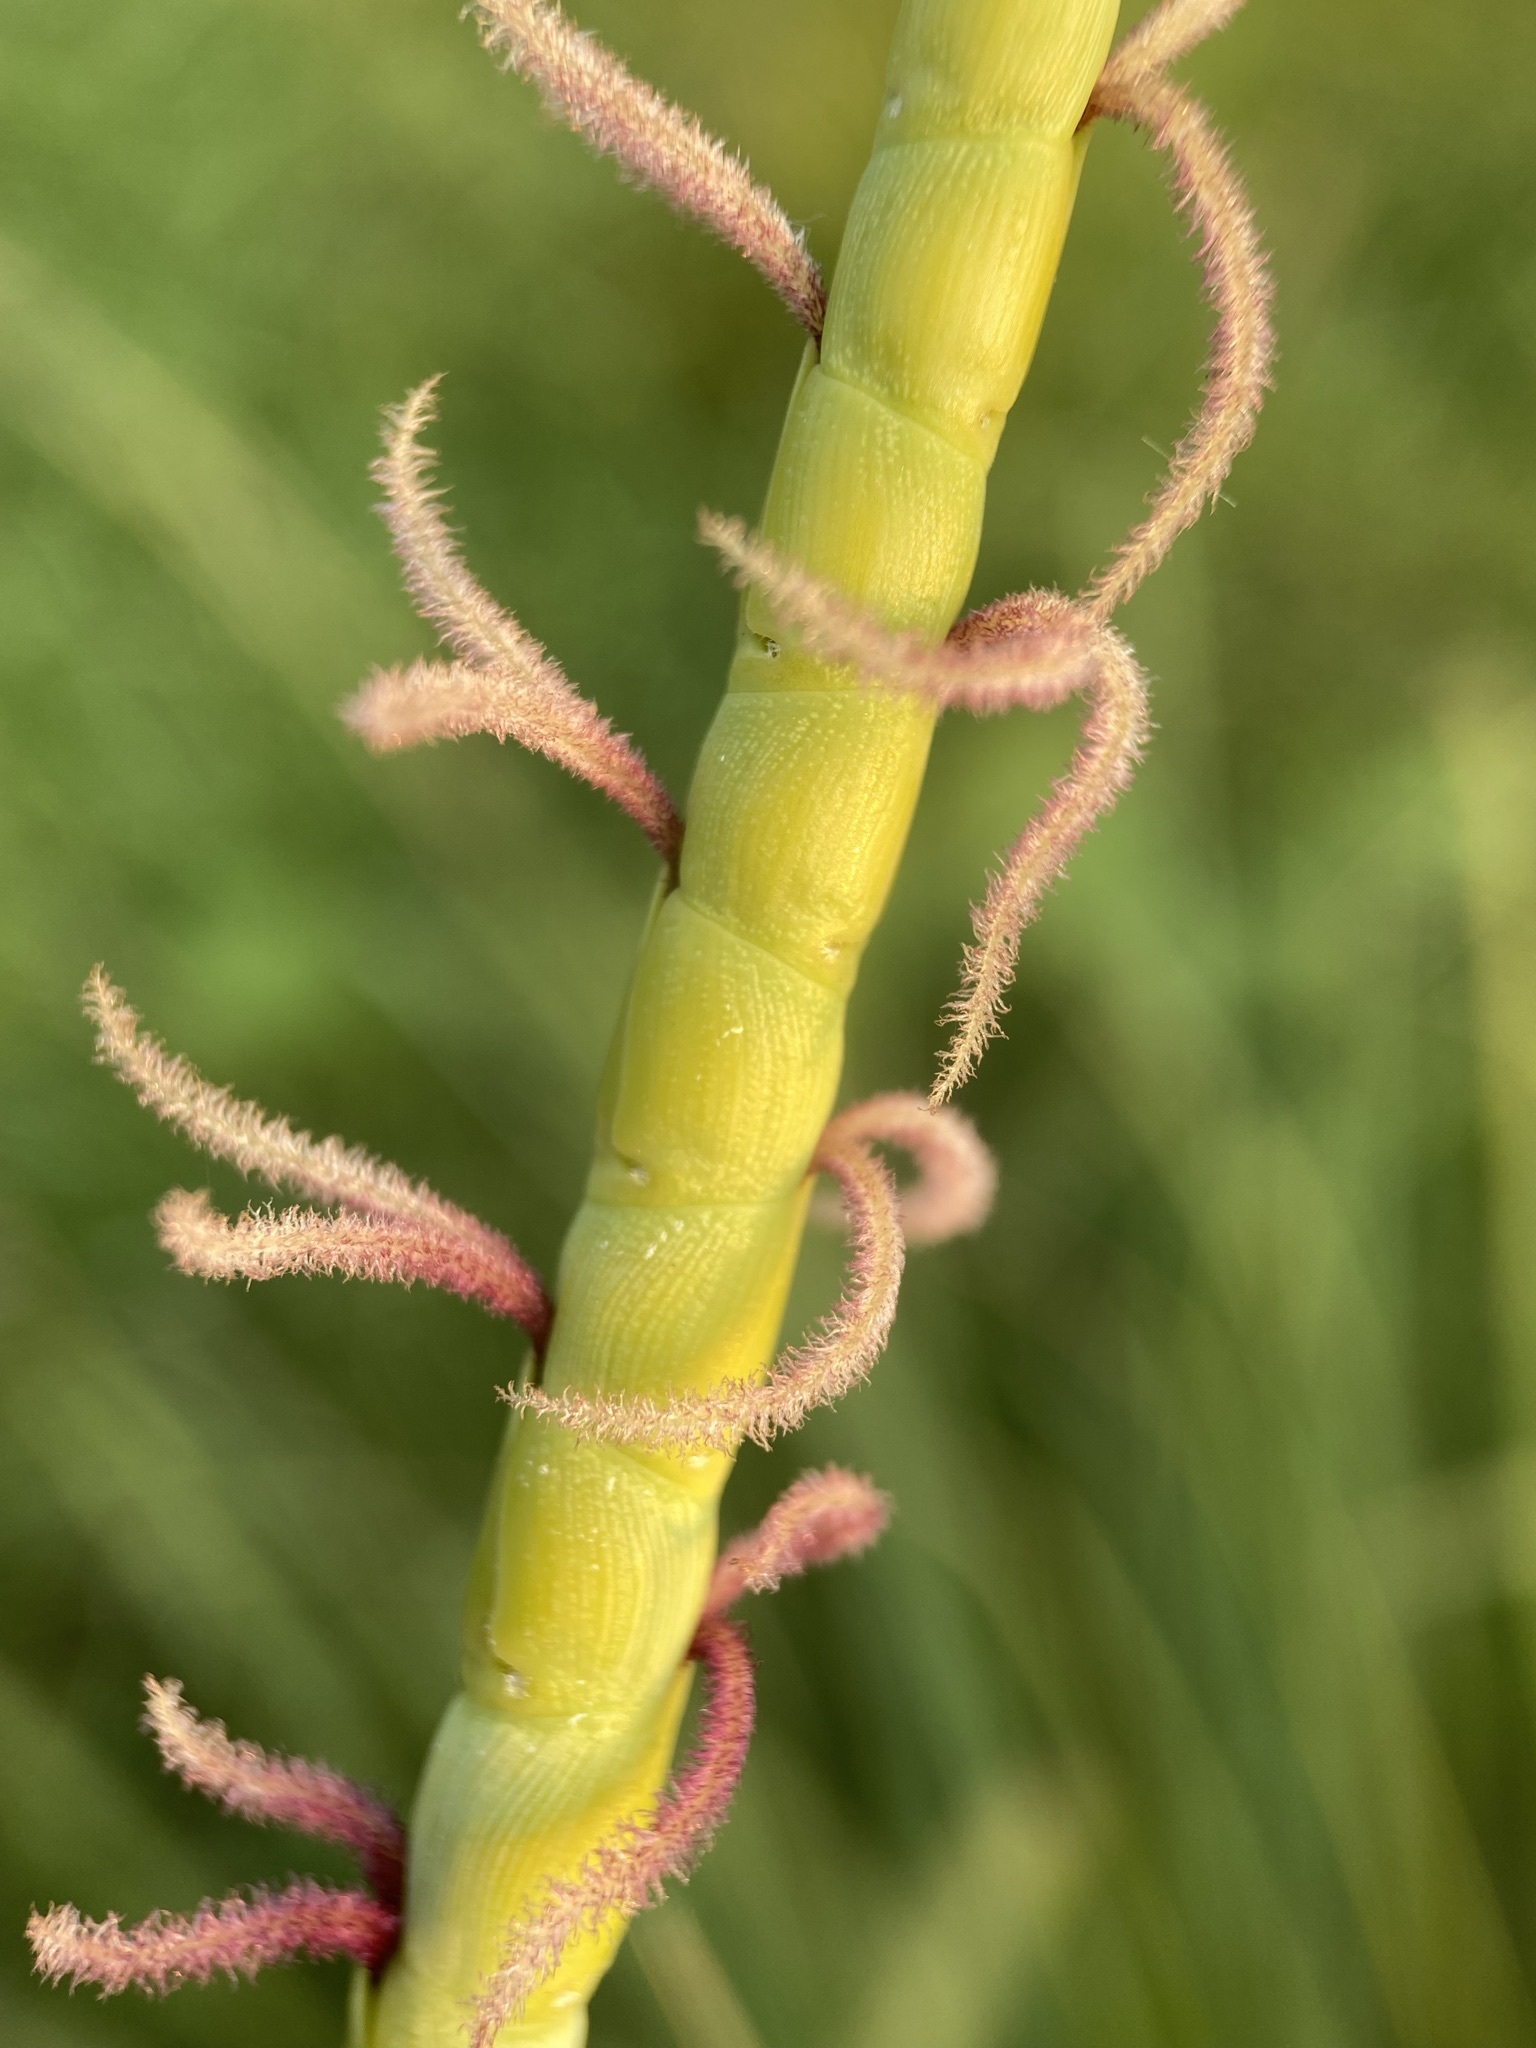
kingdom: Plantae
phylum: Tracheophyta
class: Liliopsida
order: Poales
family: Poaceae
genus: Tripsacum
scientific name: Tripsacum dactyloides
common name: Buffalo-grass
